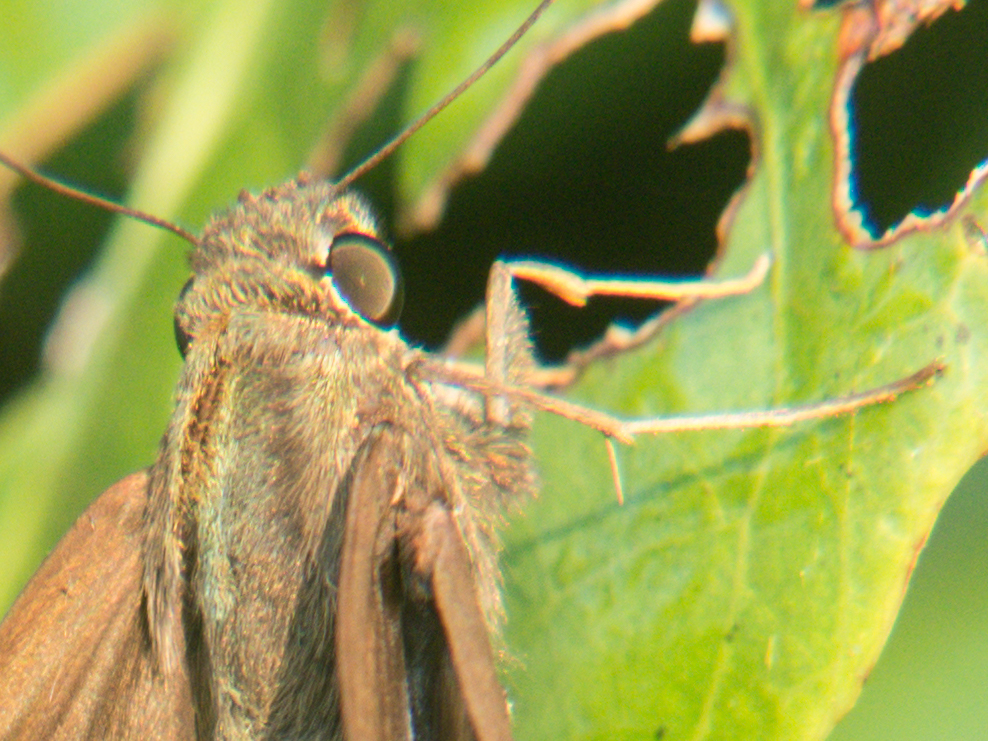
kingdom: Animalia
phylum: Arthropoda
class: Insecta
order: Lepidoptera
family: Hesperiidae
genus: Baoris
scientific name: Baoris farri
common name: Paintbrush swift
